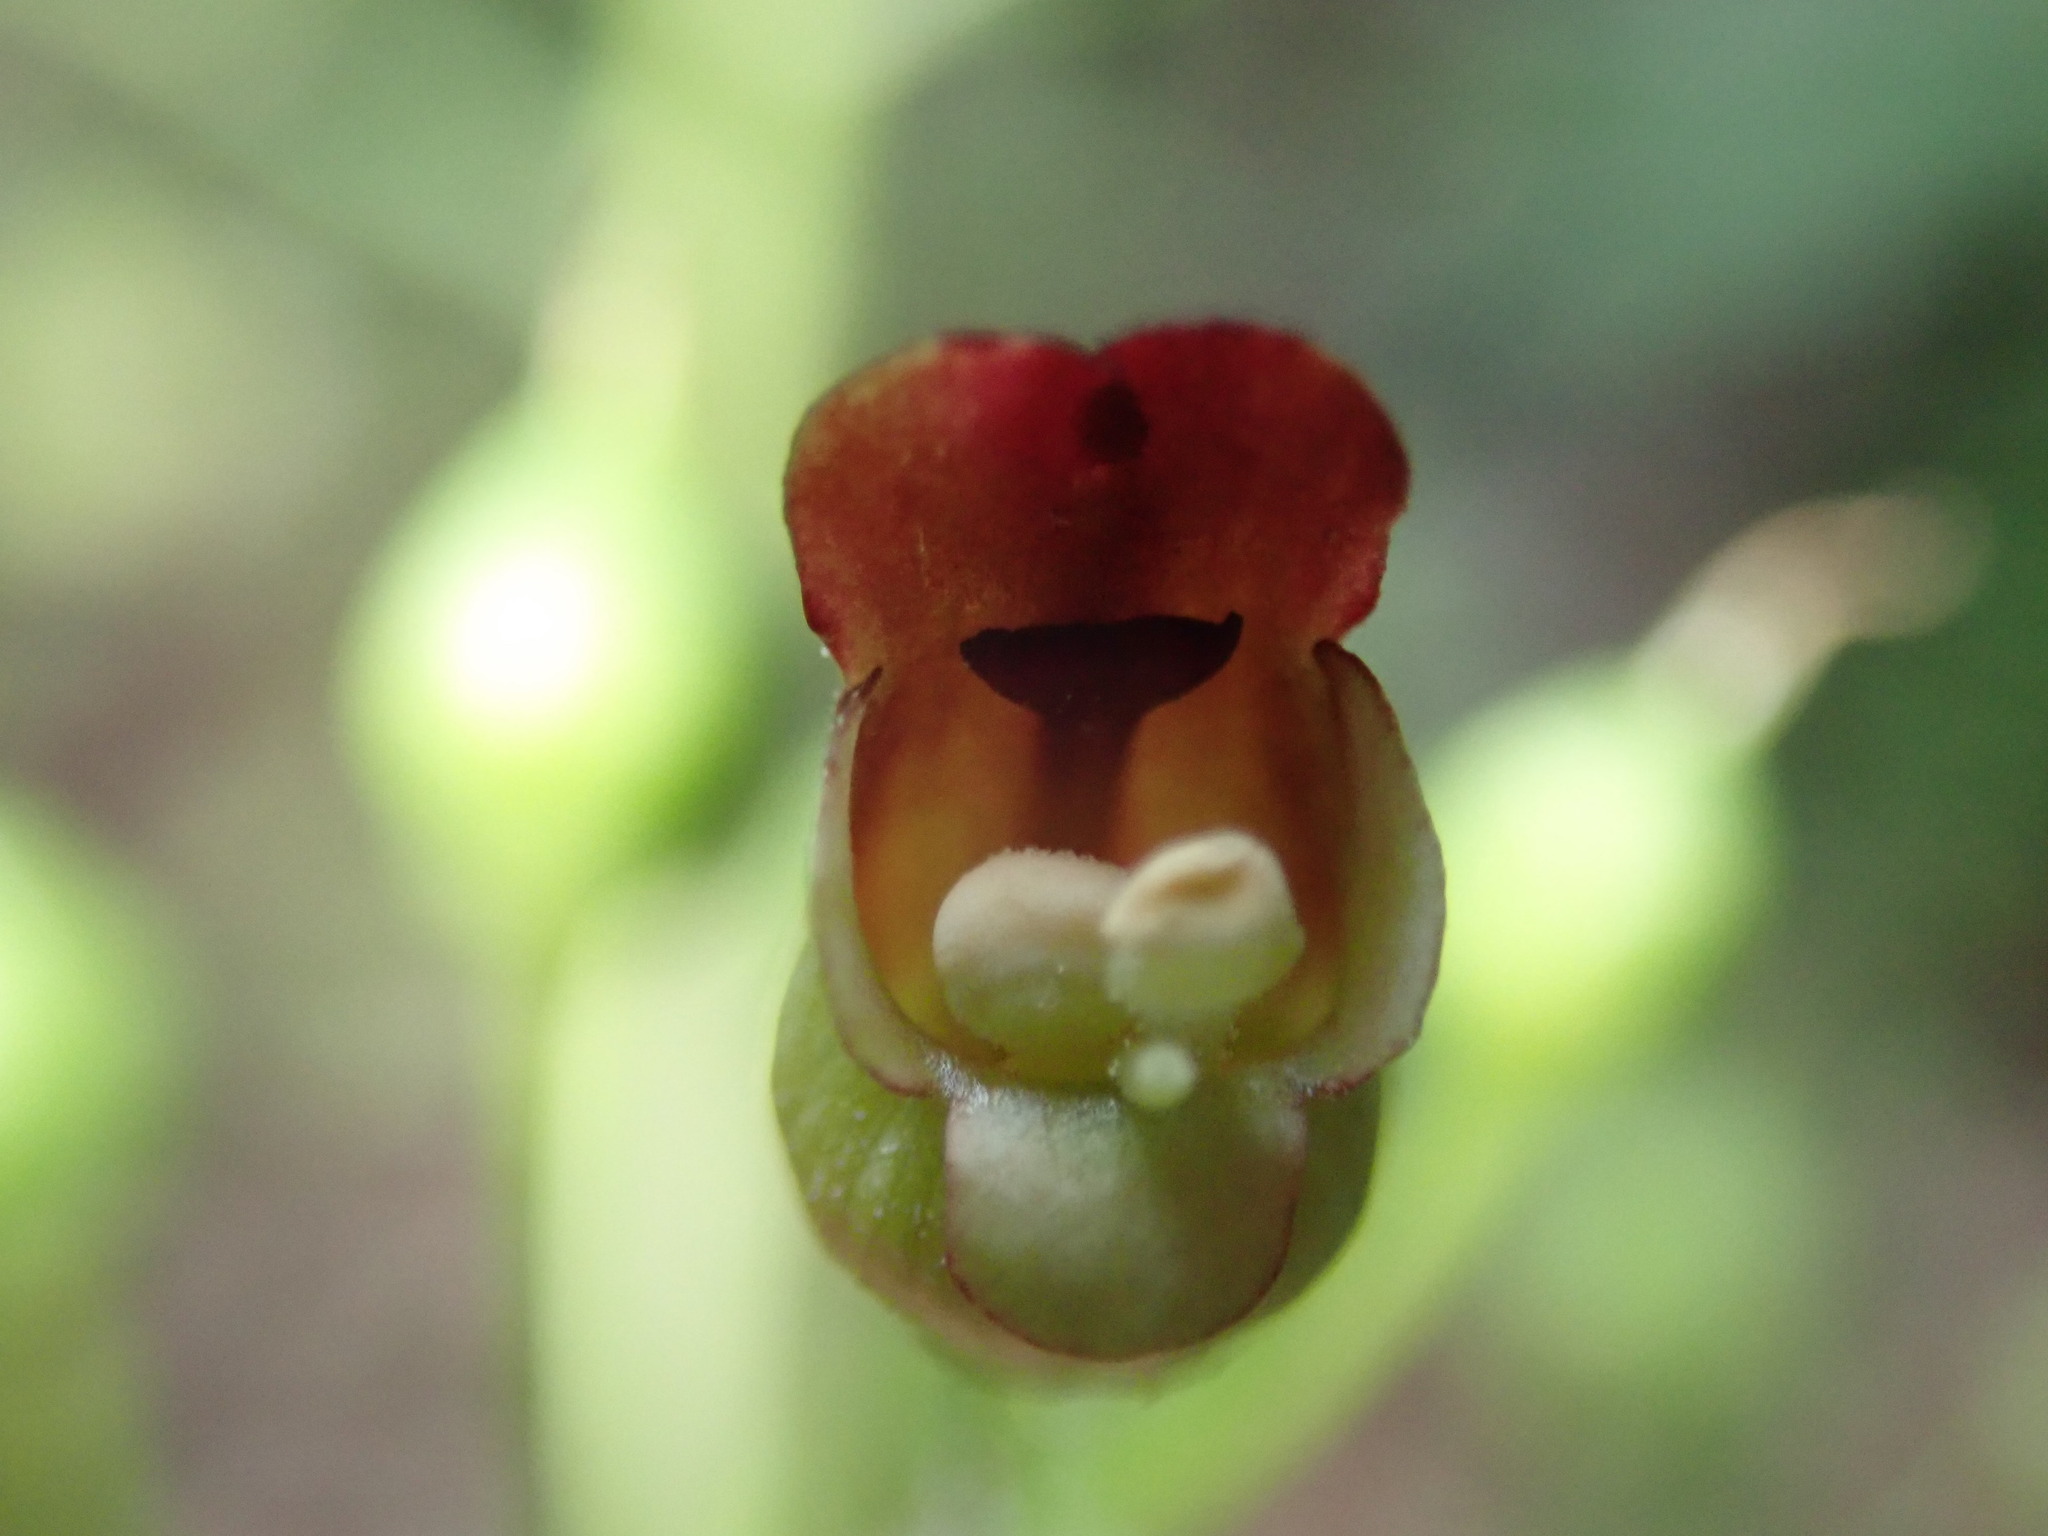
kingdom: Plantae
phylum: Tracheophyta
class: Magnoliopsida
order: Lamiales
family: Scrophulariaceae
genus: Scrophularia
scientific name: Scrophularia nodosa
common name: Common figwort
